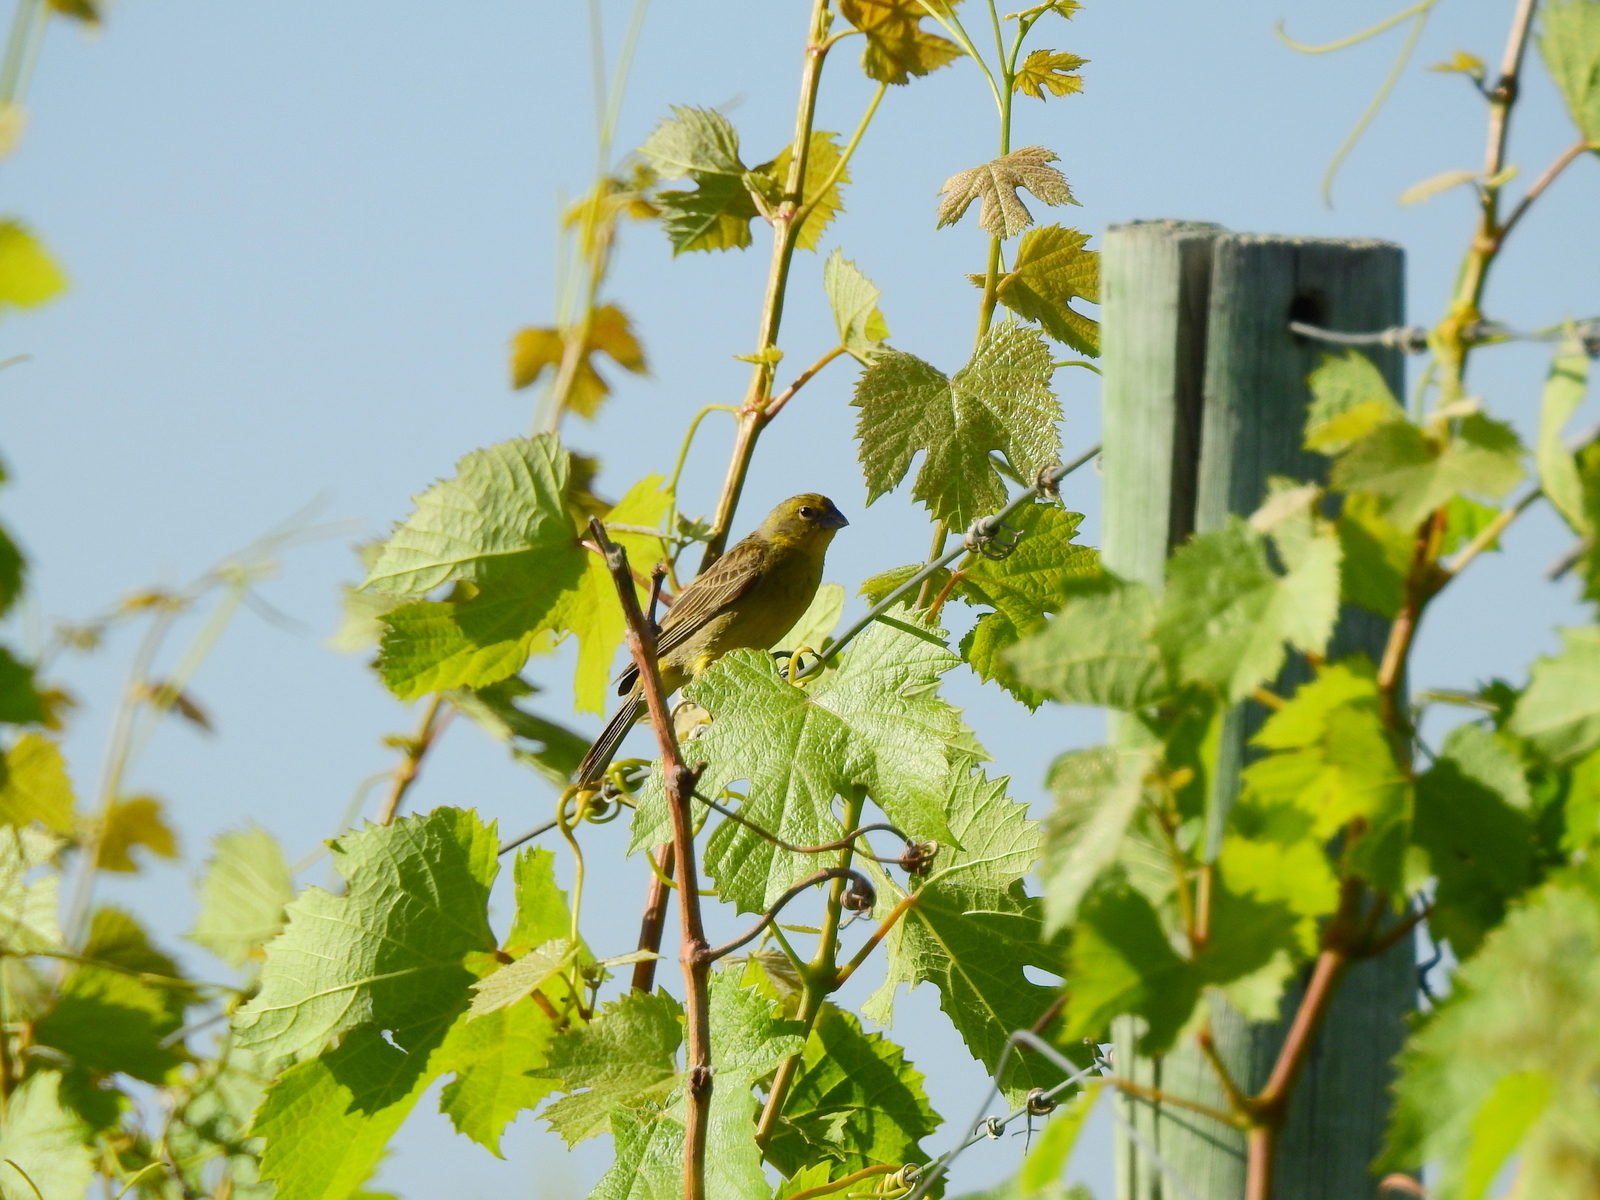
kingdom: Animalia
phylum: Chordata
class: Aves
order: Passeriformes
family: Thraupidae
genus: Sicalis
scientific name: Sicalis luteola
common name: Grassland yellow-finch
